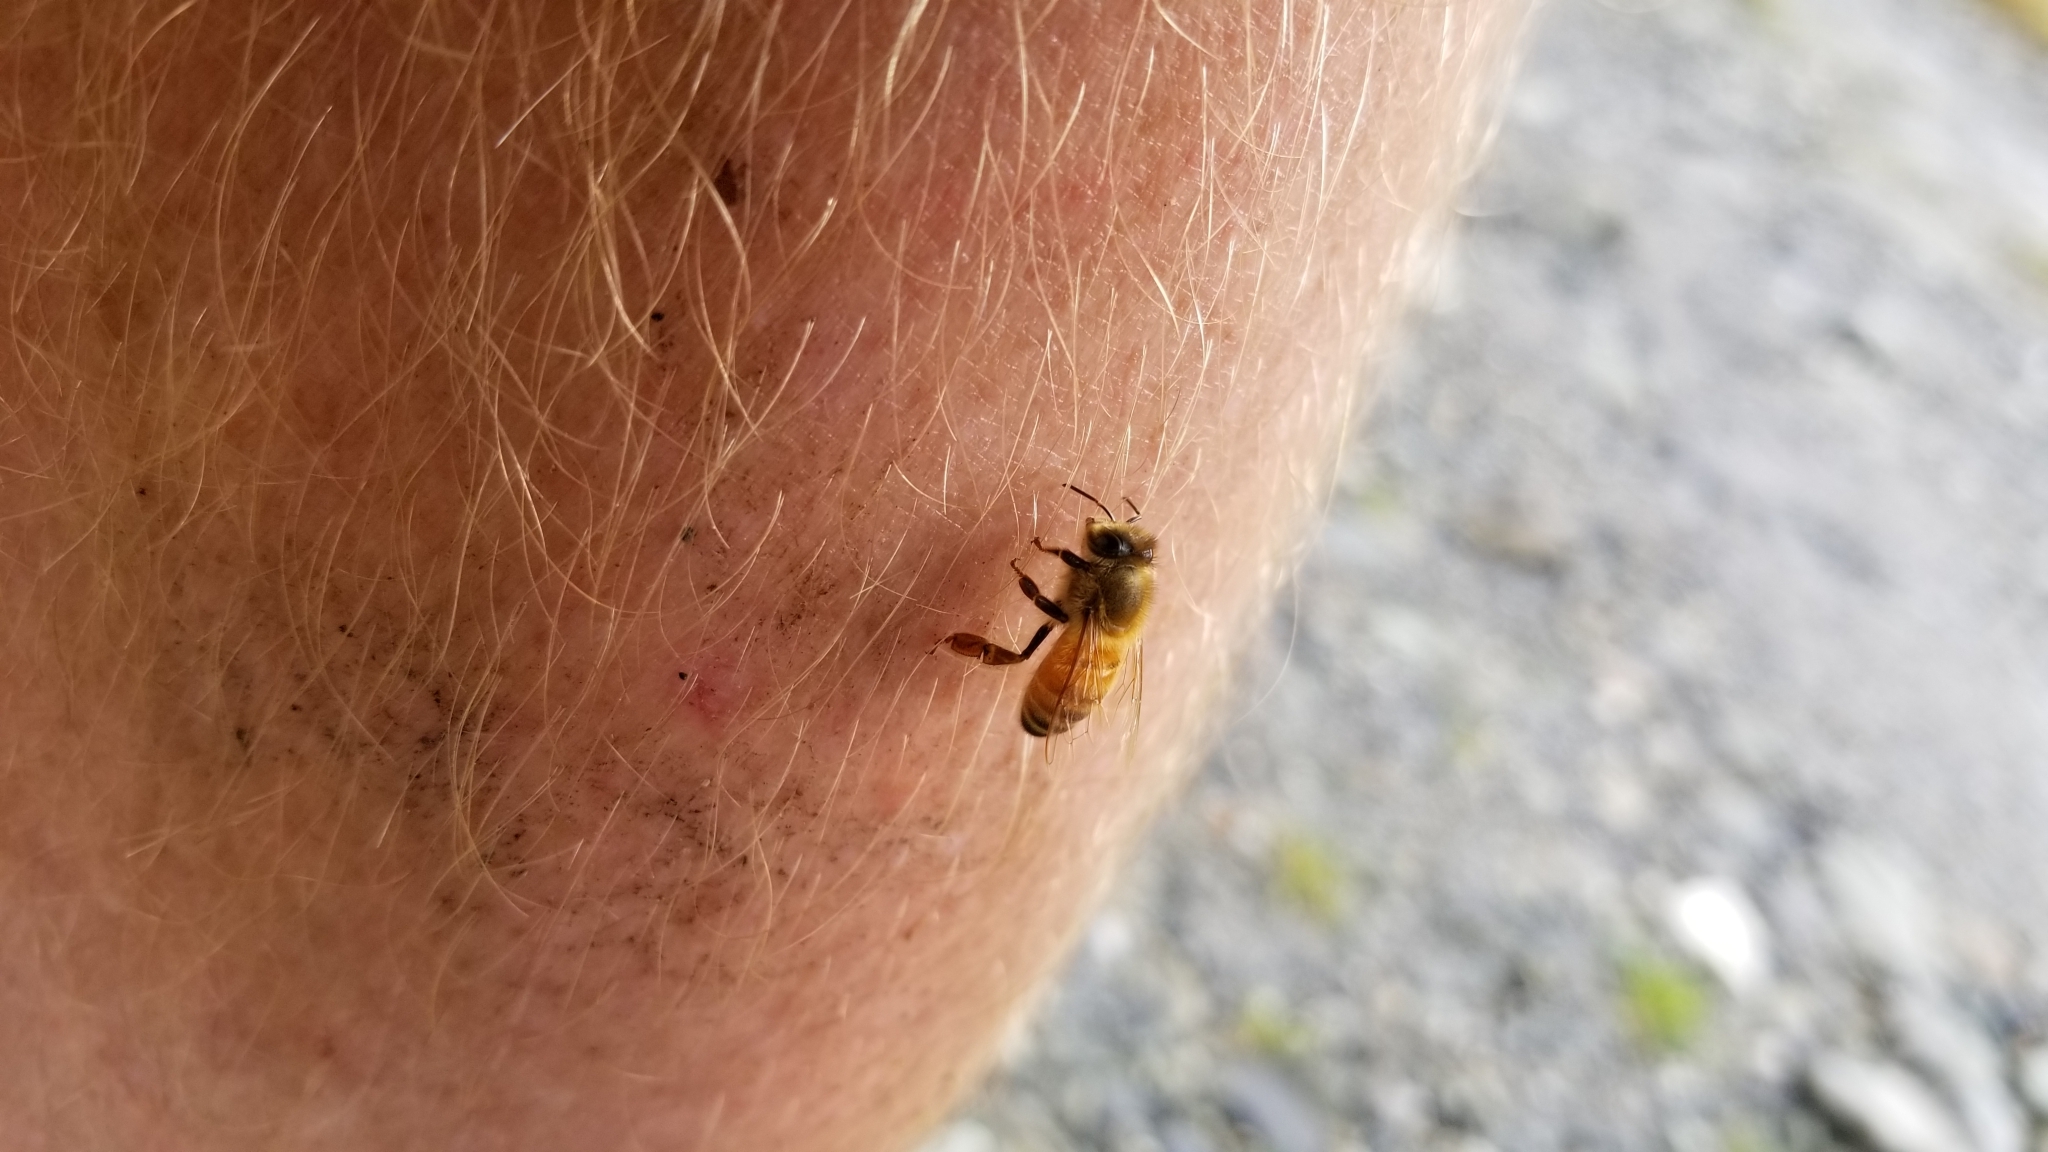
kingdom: Animalia
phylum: Arthropoda
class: Insecta
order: Hymenoptera
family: Apidae
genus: Apis
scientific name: Apis mellifera
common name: Honey bee
